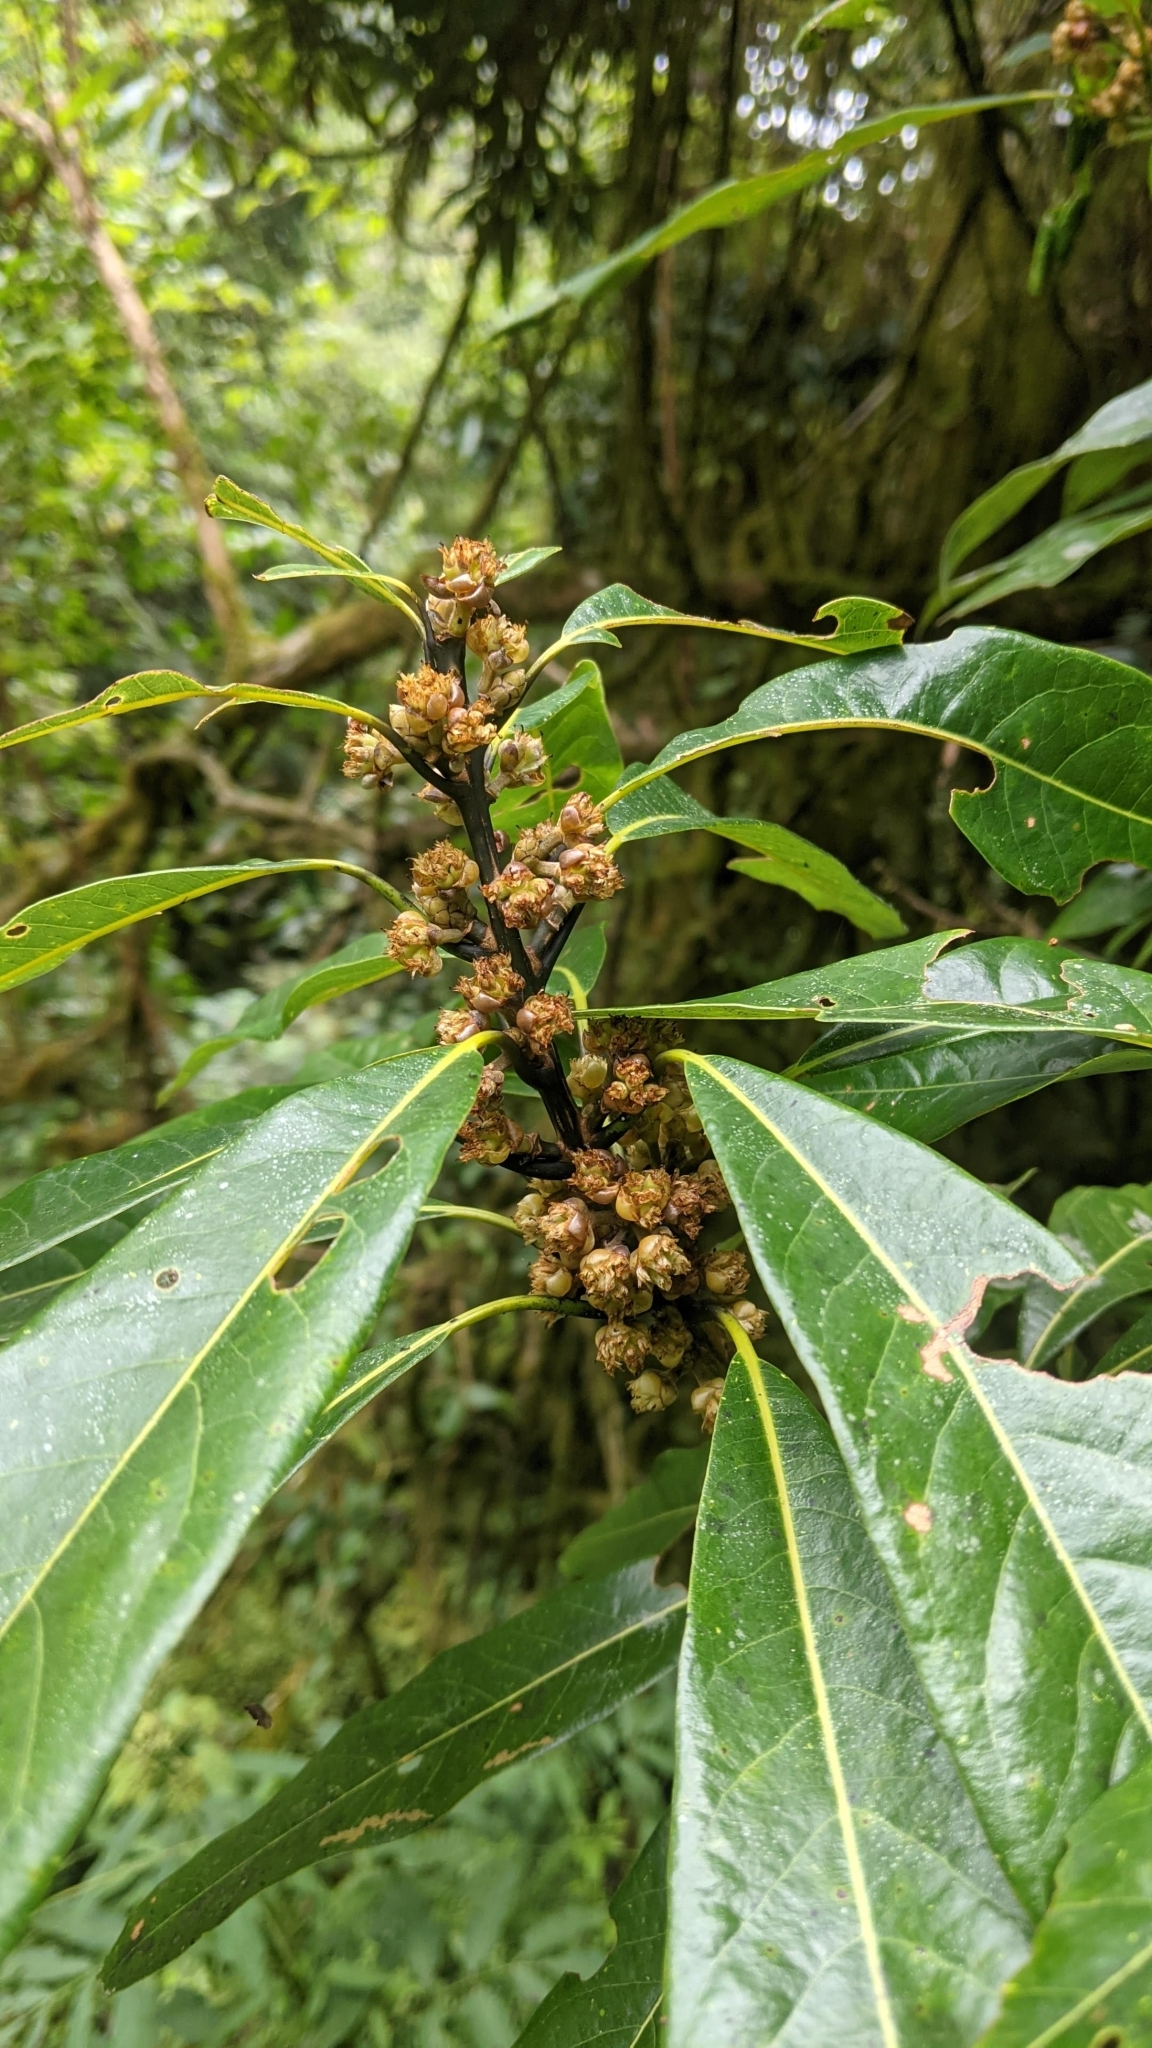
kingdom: Plantae
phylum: Tracheophyta
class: Magnoliopsida
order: Laurales
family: Lauraceae
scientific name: Lauraceae
